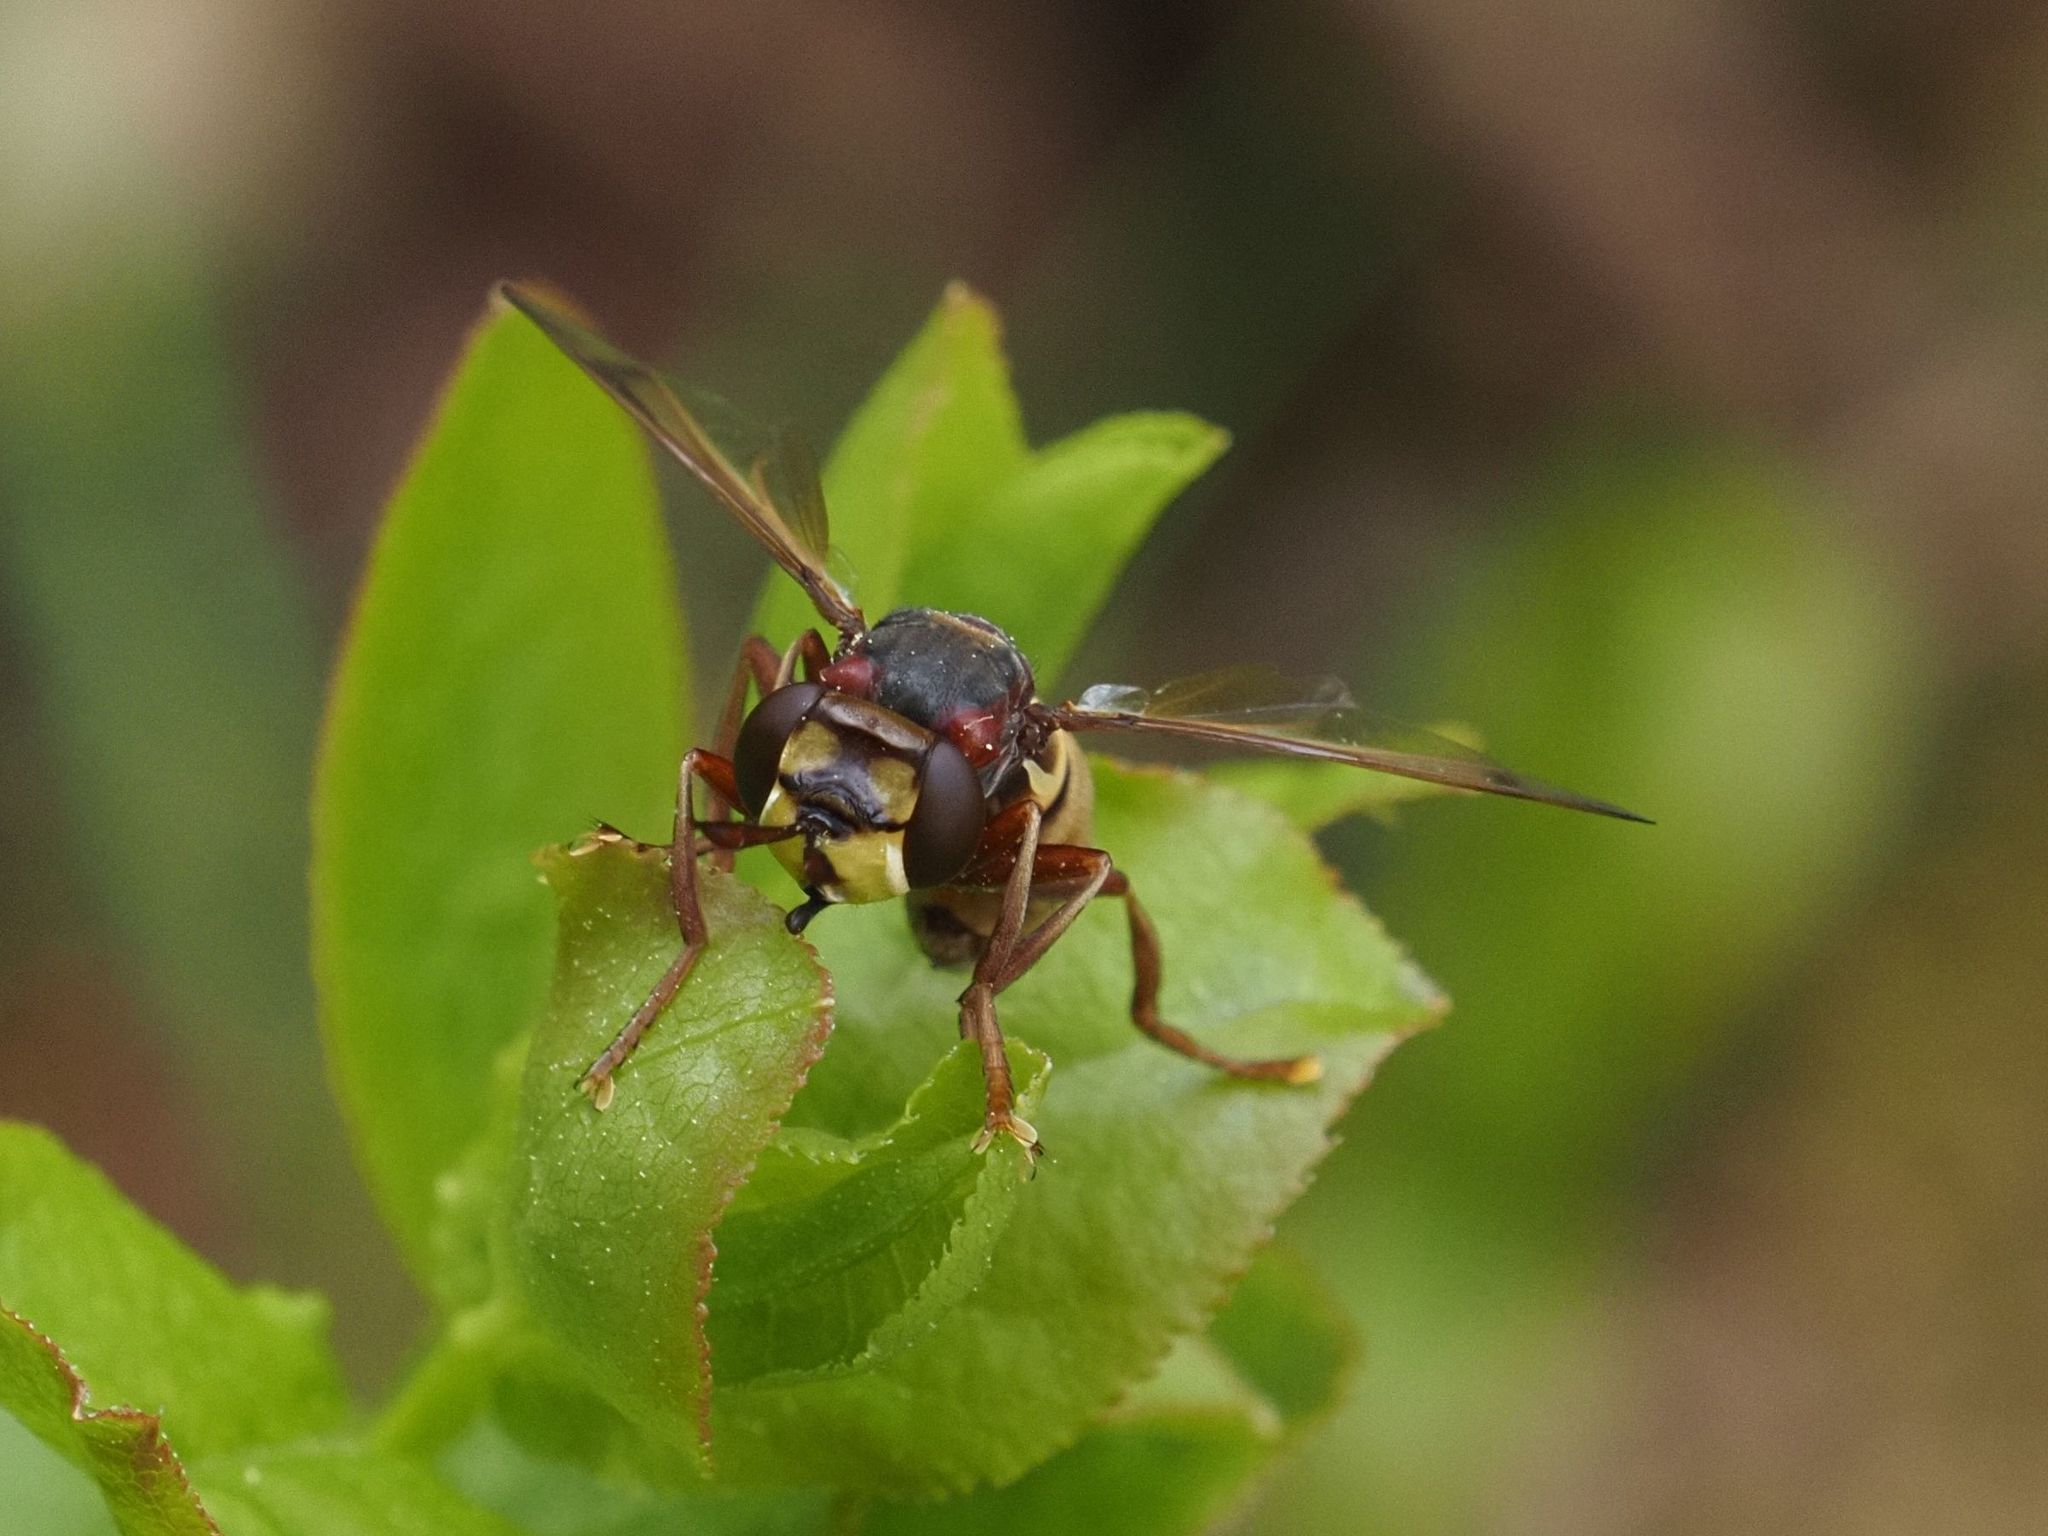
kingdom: Animalia
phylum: Arthropoda
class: Insecta
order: Diptera
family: Conopidae
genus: Conops
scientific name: Conops vesicularis
